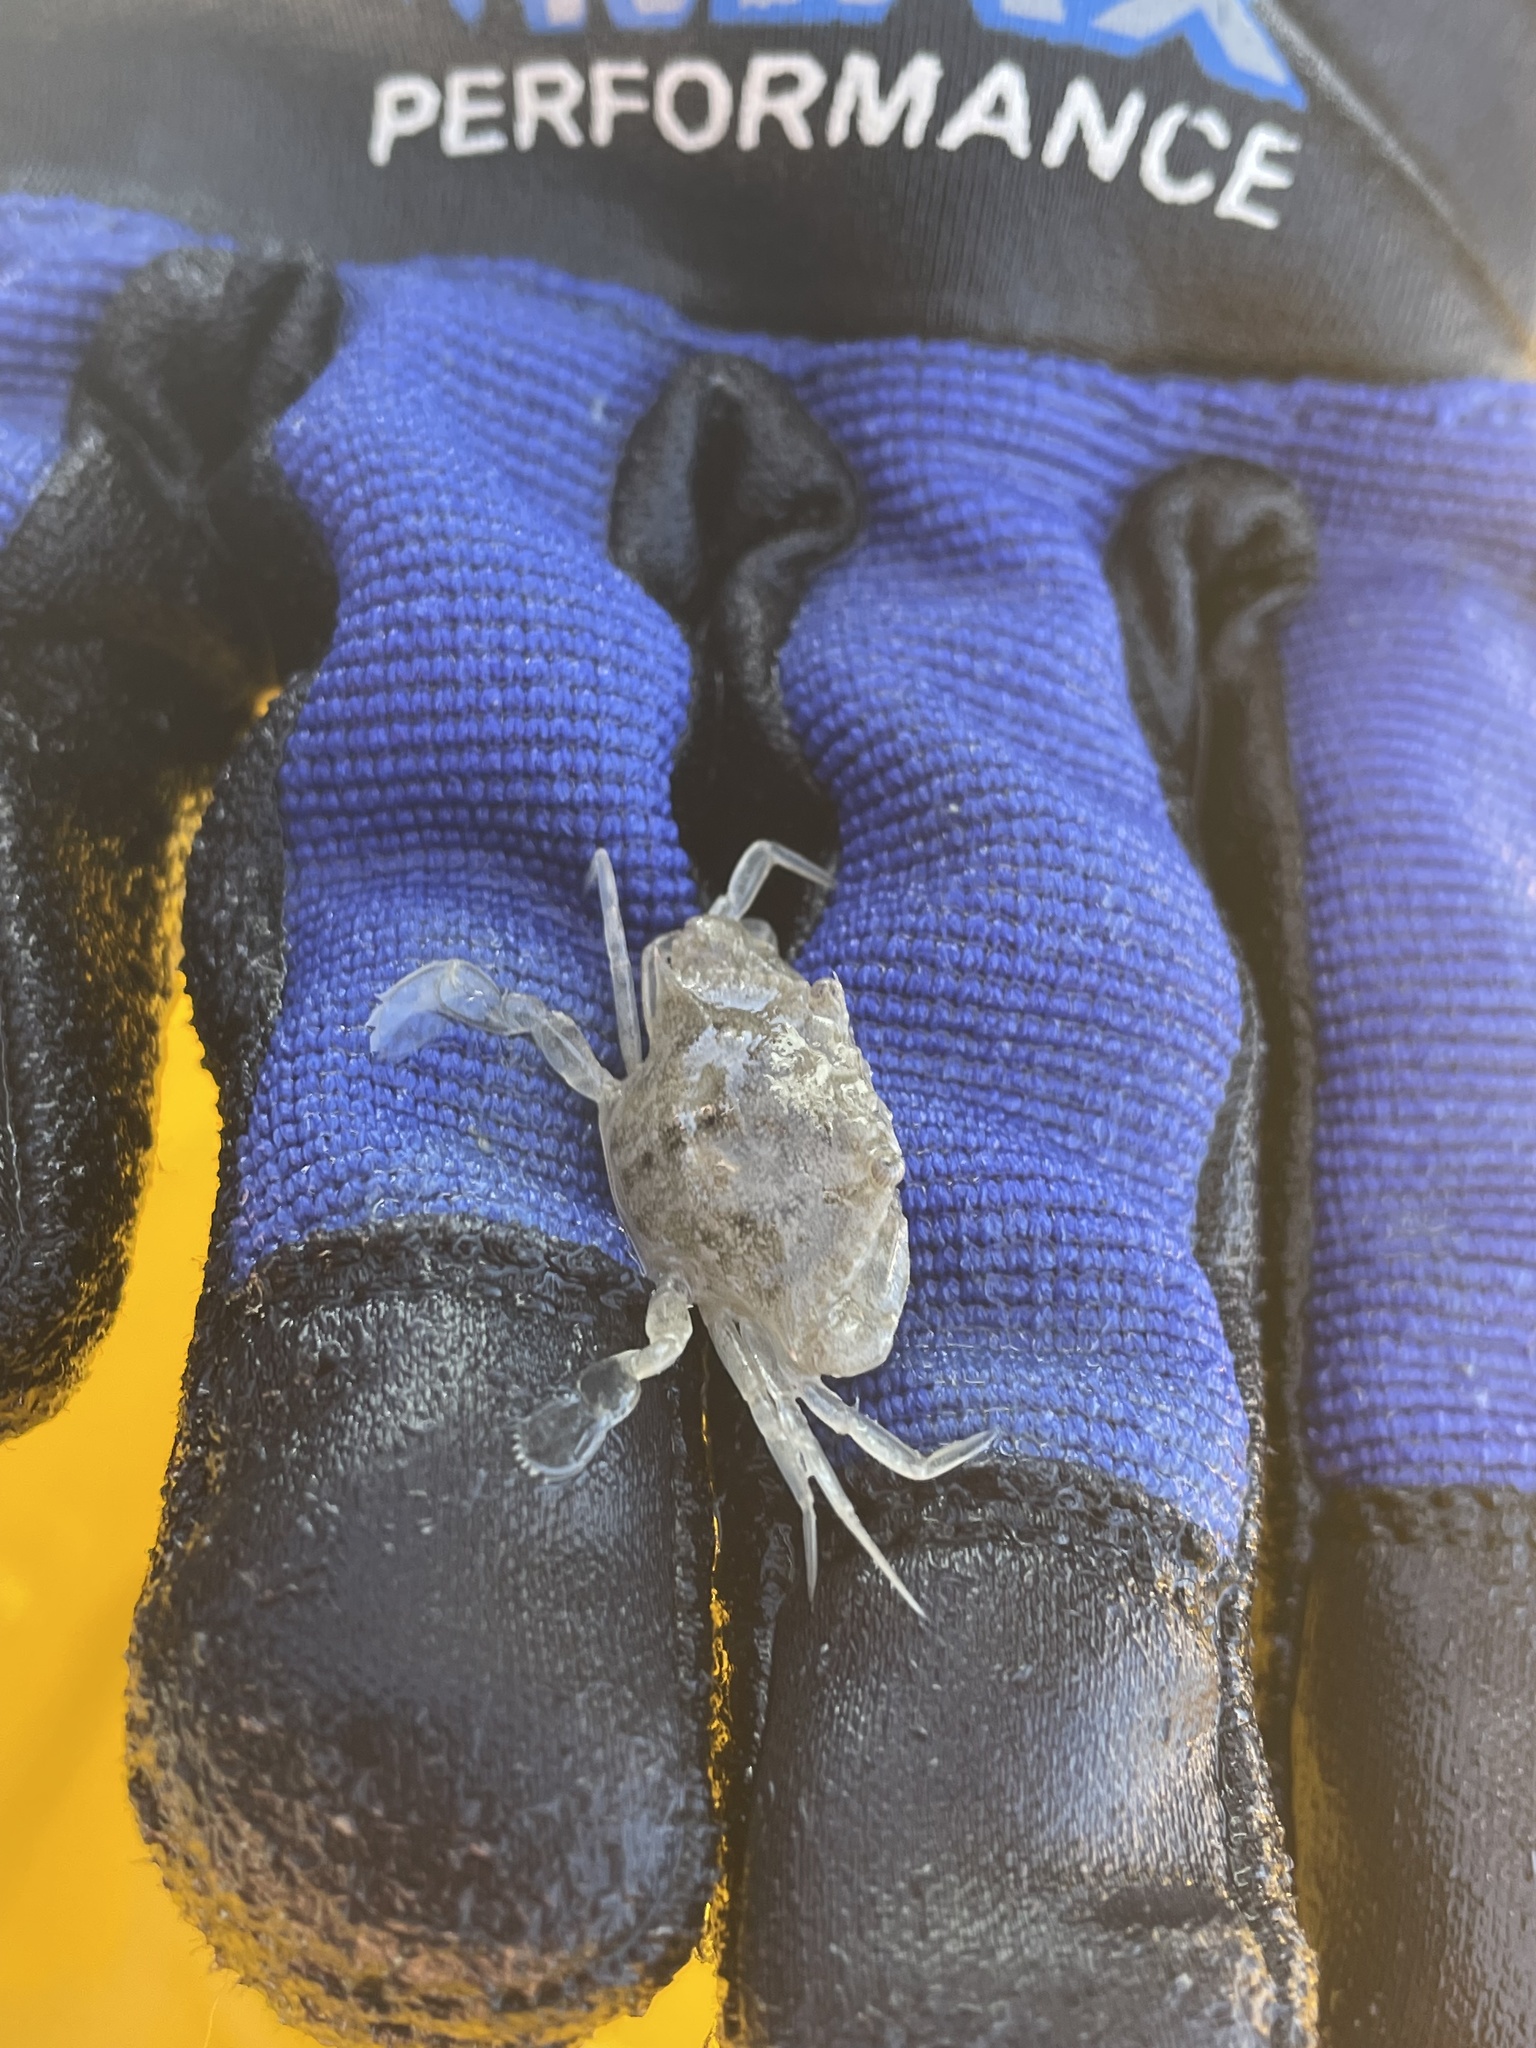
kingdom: Animalia
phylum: Arthropoda
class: Malacostraca
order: Decapoda
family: Portunidae
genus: Callinectes
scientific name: Callinectes sapidus
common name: Blue crab
